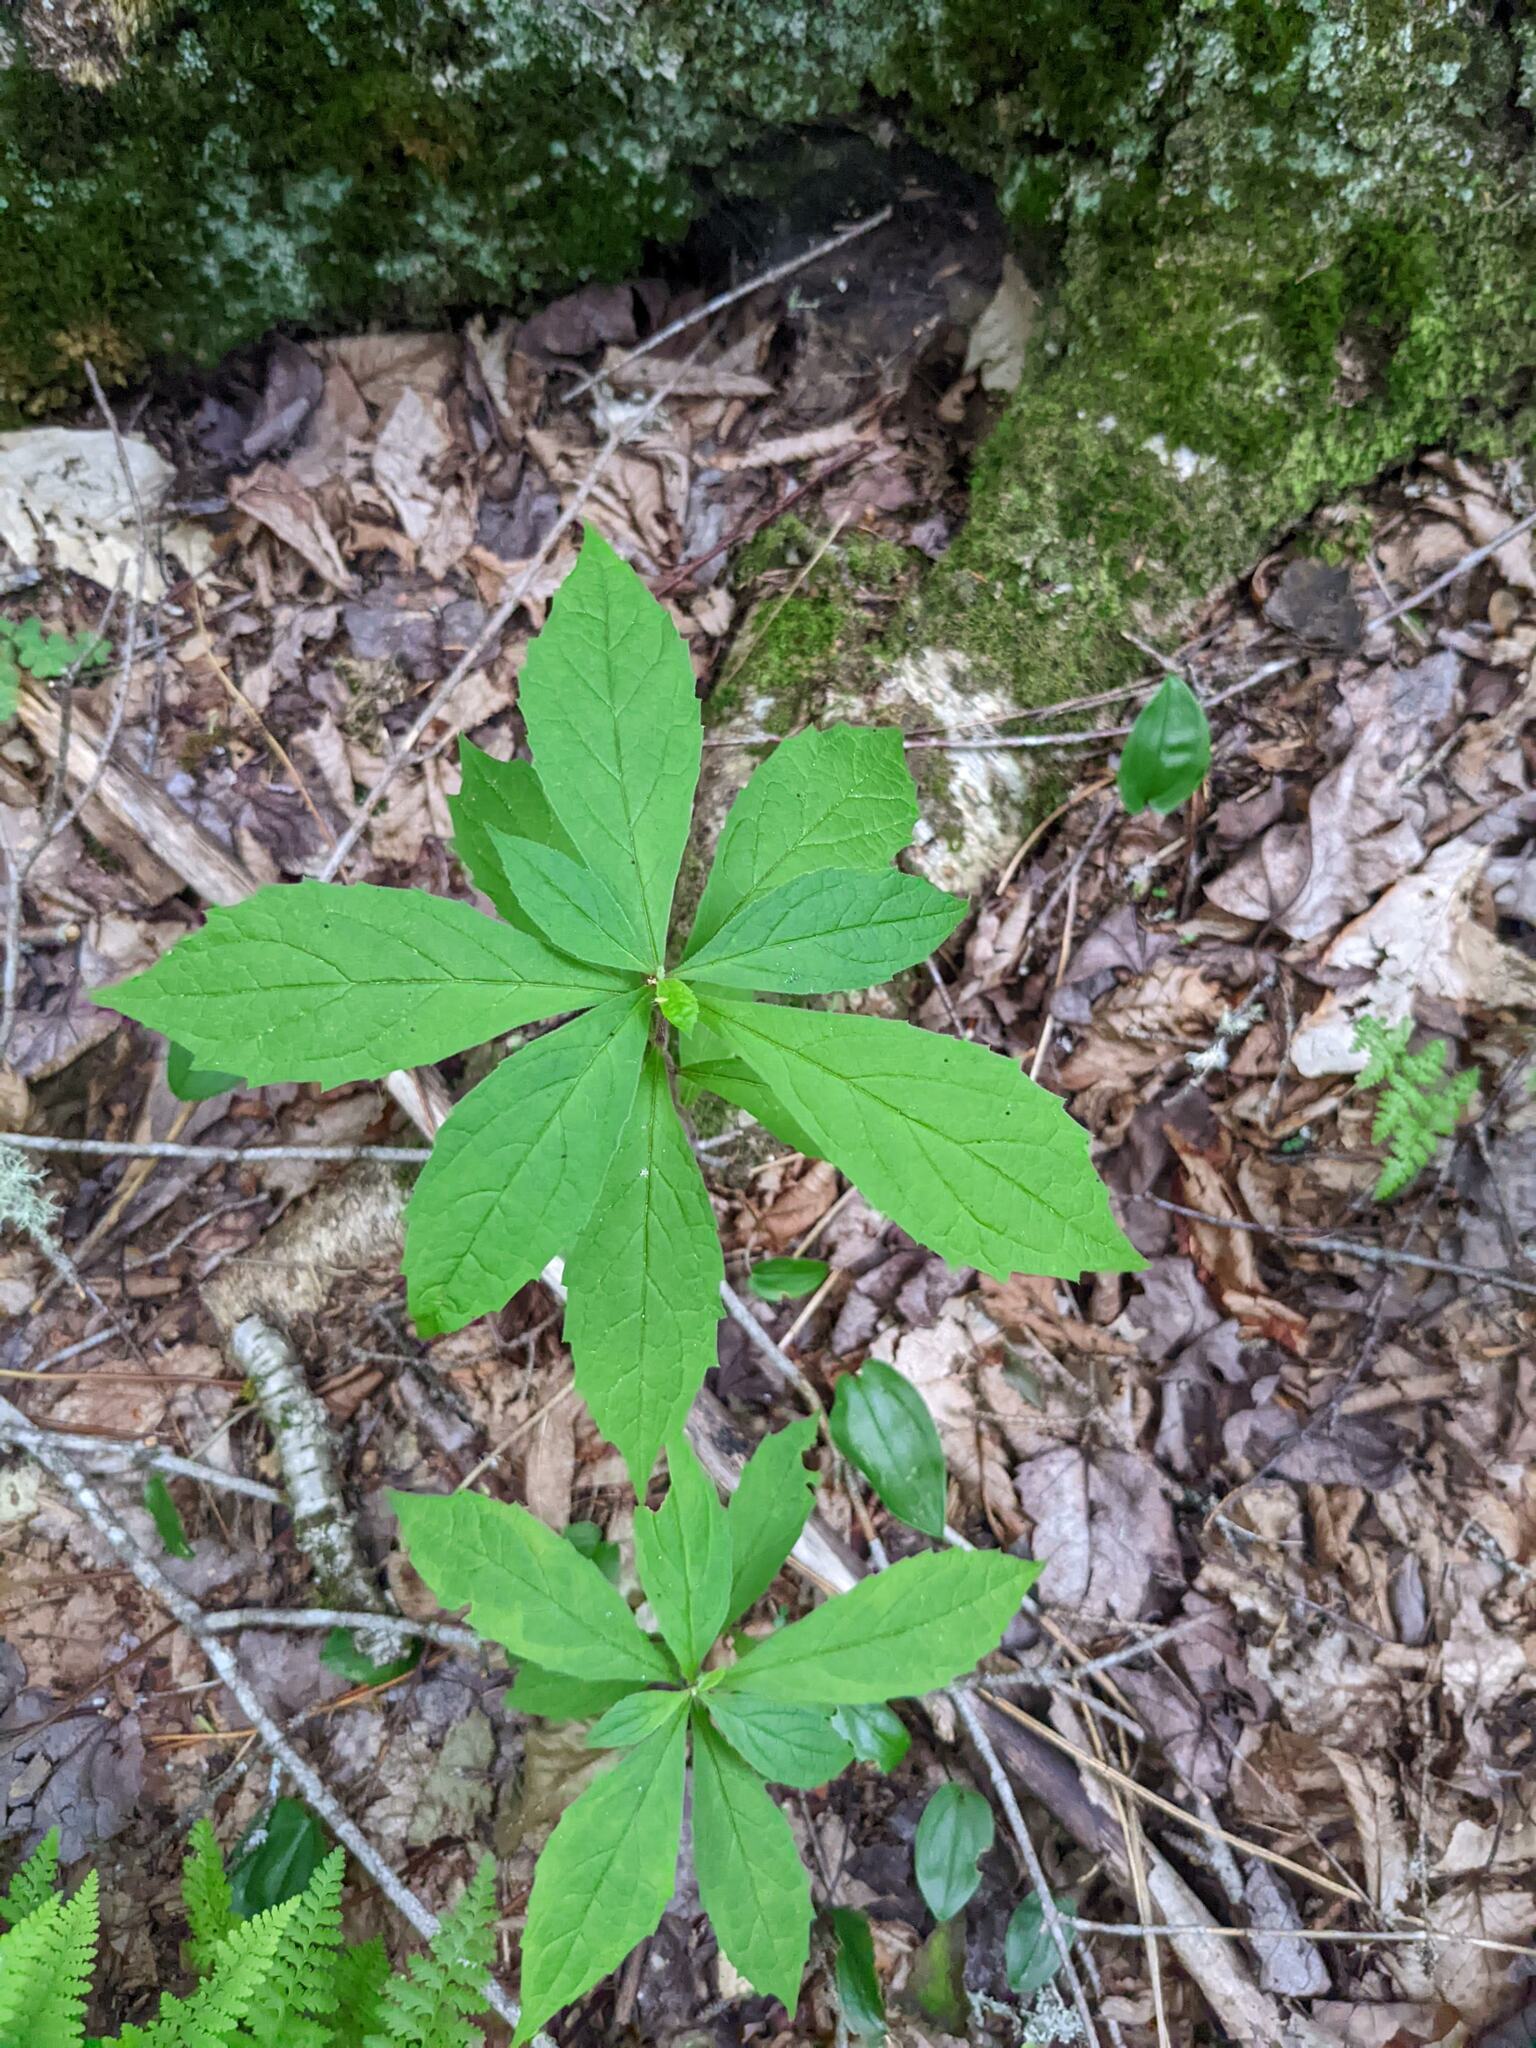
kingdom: Plantae
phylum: Tracheophyta
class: Magnoliopsida
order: Asterales
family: Asteraceae
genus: Oclemena
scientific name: Oclemena acuminata
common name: Mountain aster
